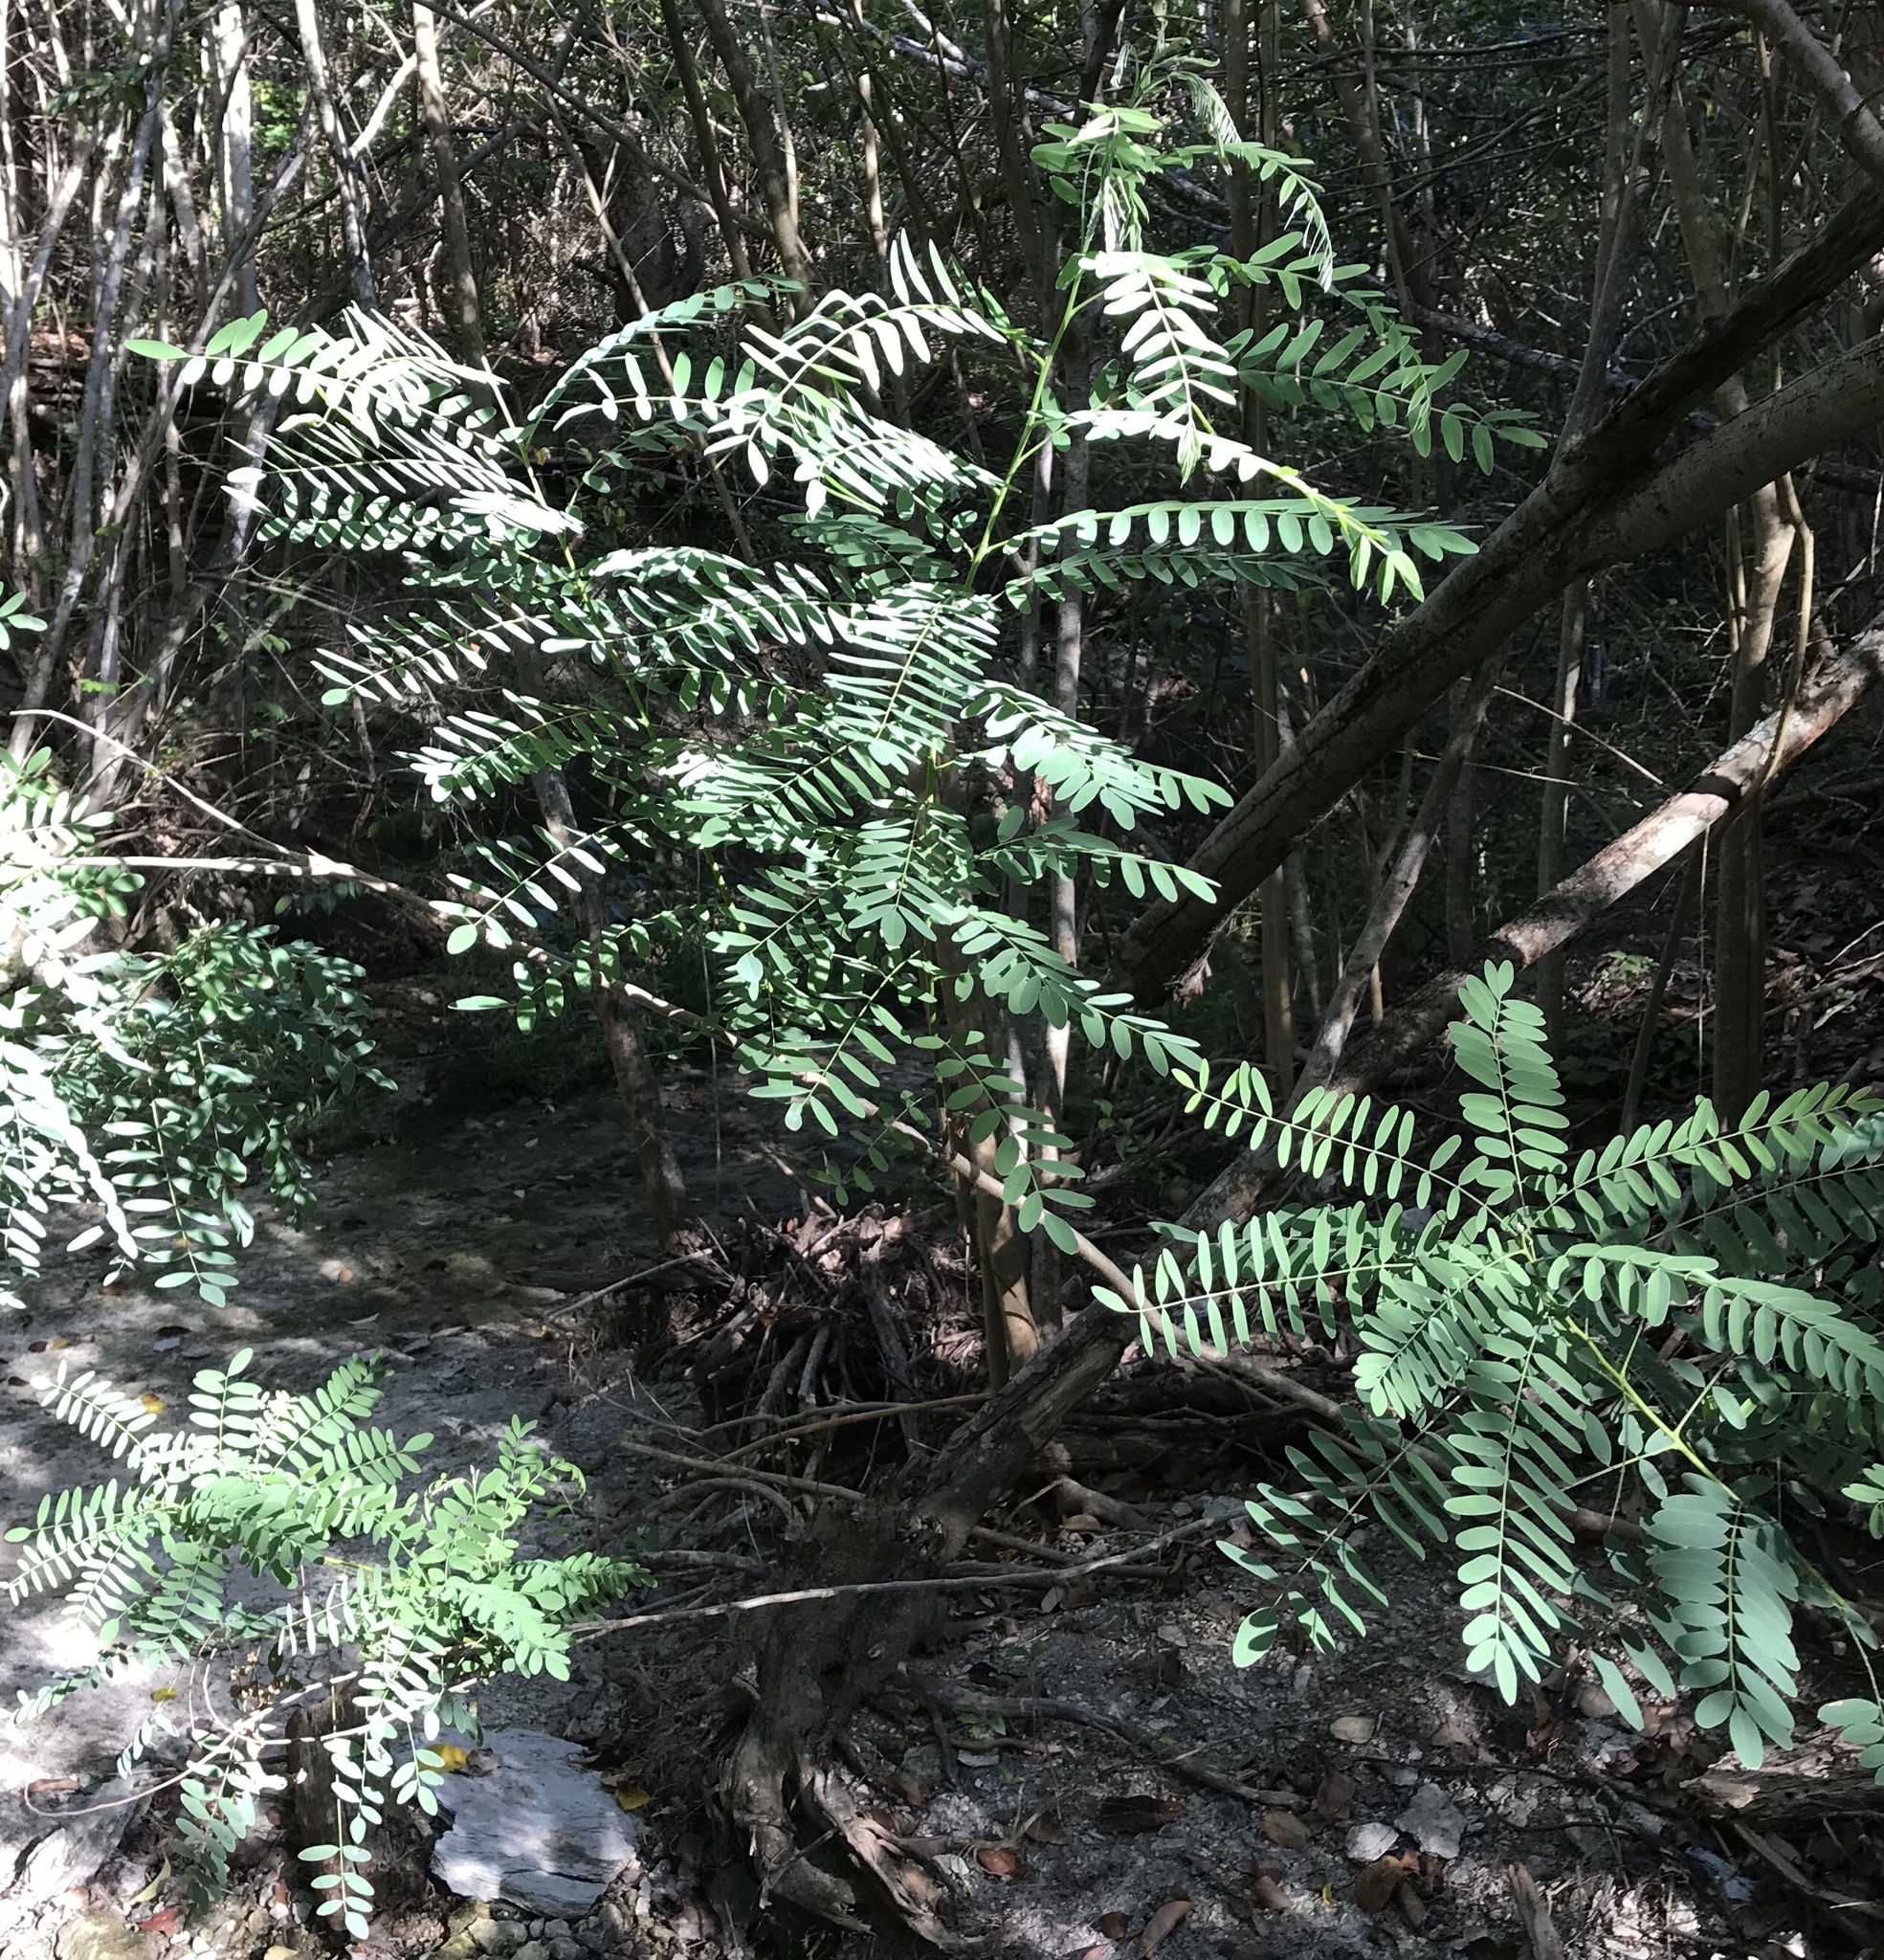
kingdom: Plantae
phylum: Tracheophyta
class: Magnoliopsida
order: Fabales
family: Fabaceae
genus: Amorpha
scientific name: Amorpha fruticosa
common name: False indigo
